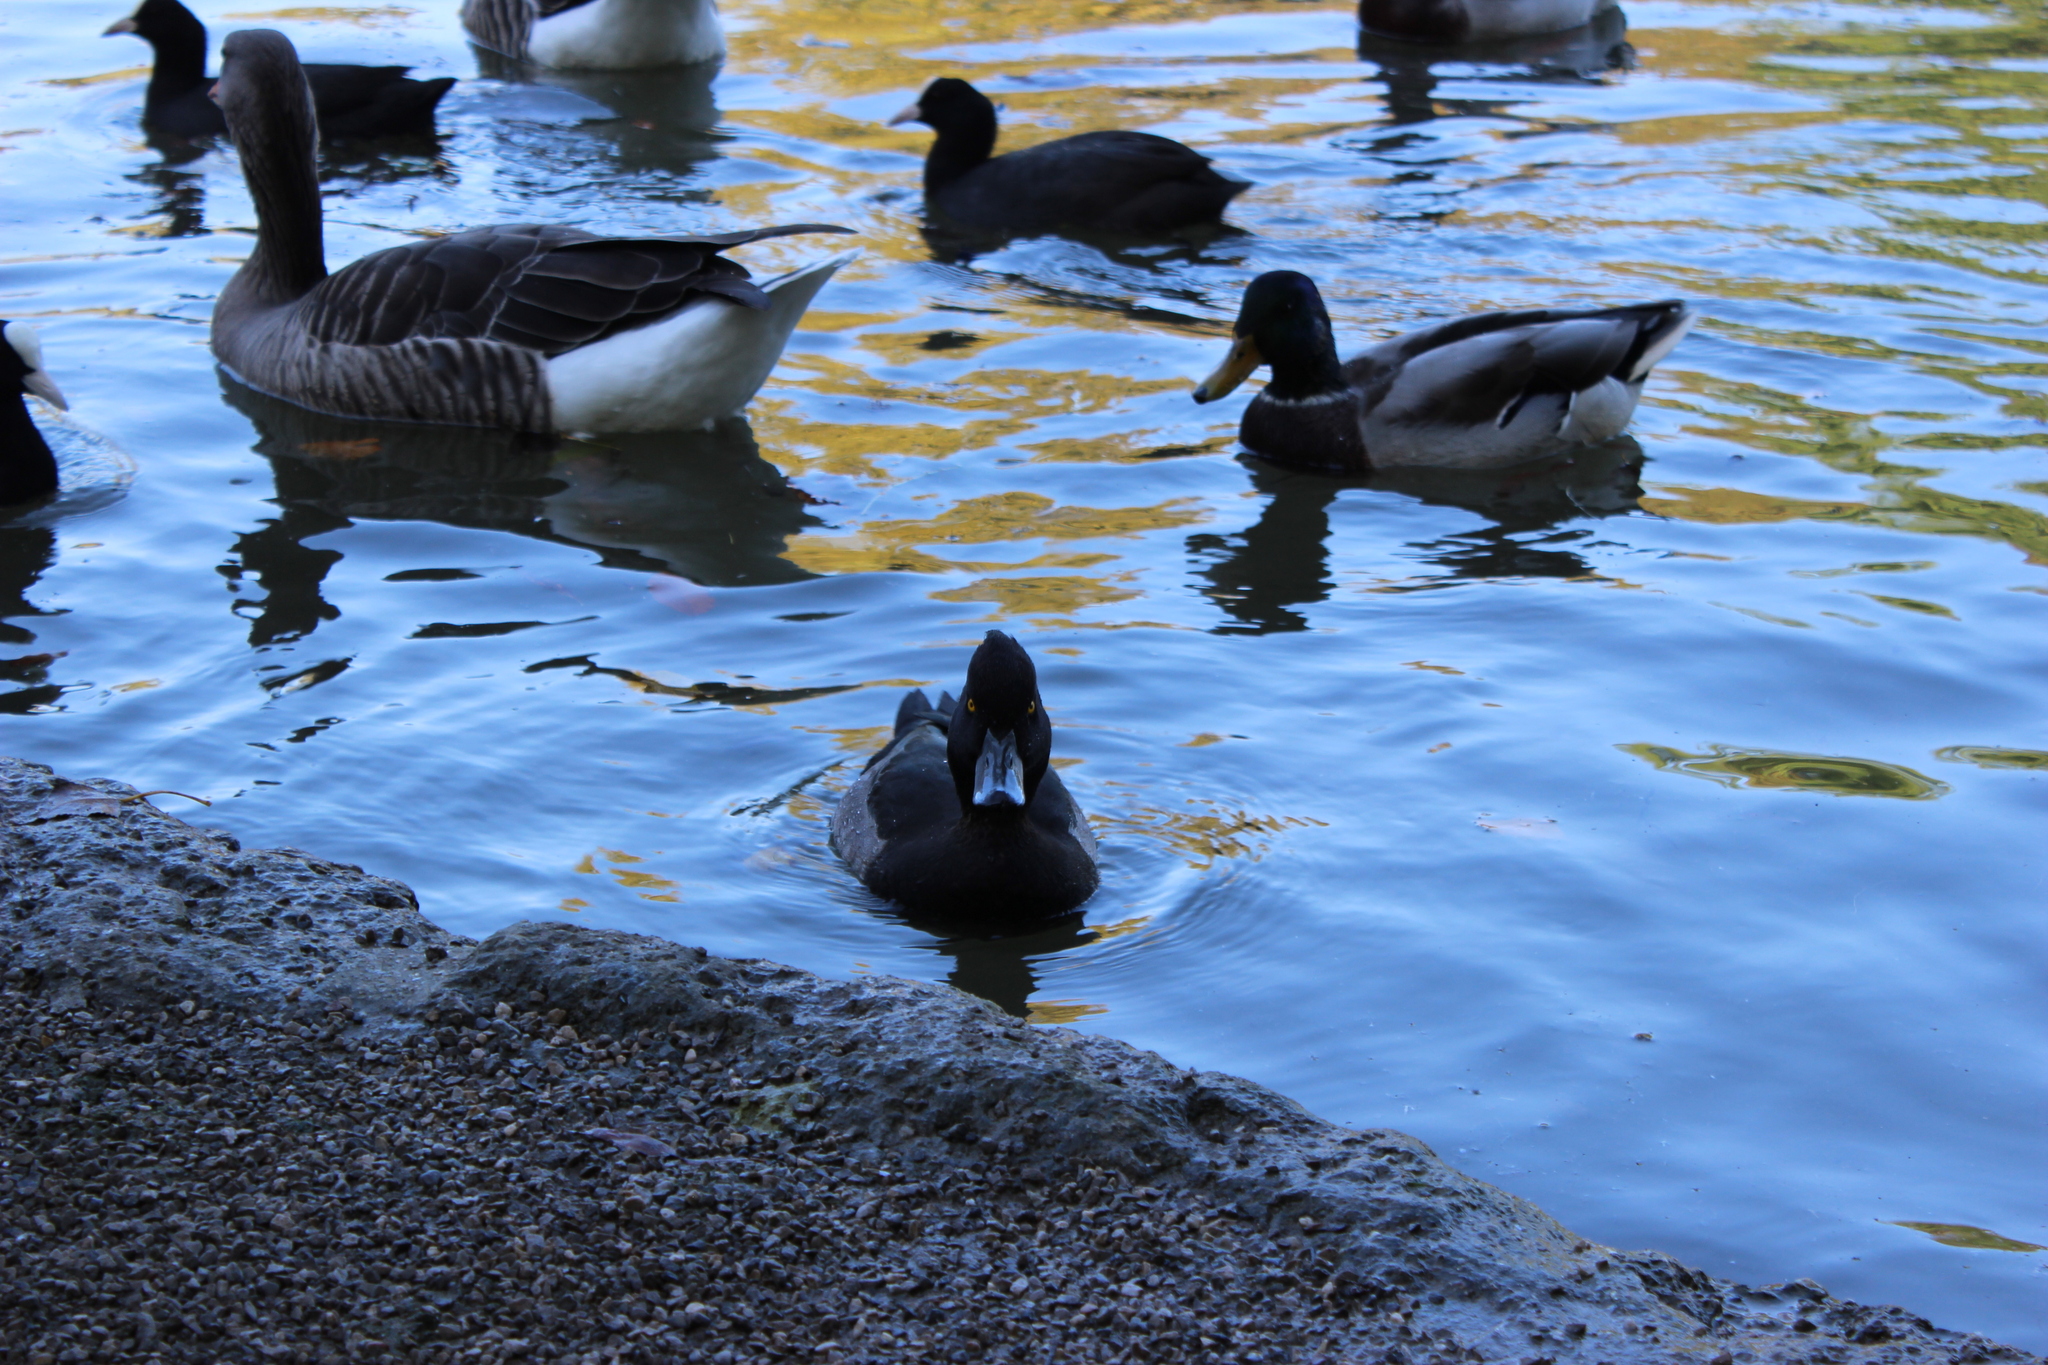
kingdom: Animalia
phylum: Chordata
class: Aves
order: Anseriformes
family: Anatidae
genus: Aythya
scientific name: Aythya fuligula
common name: Tufted duck
